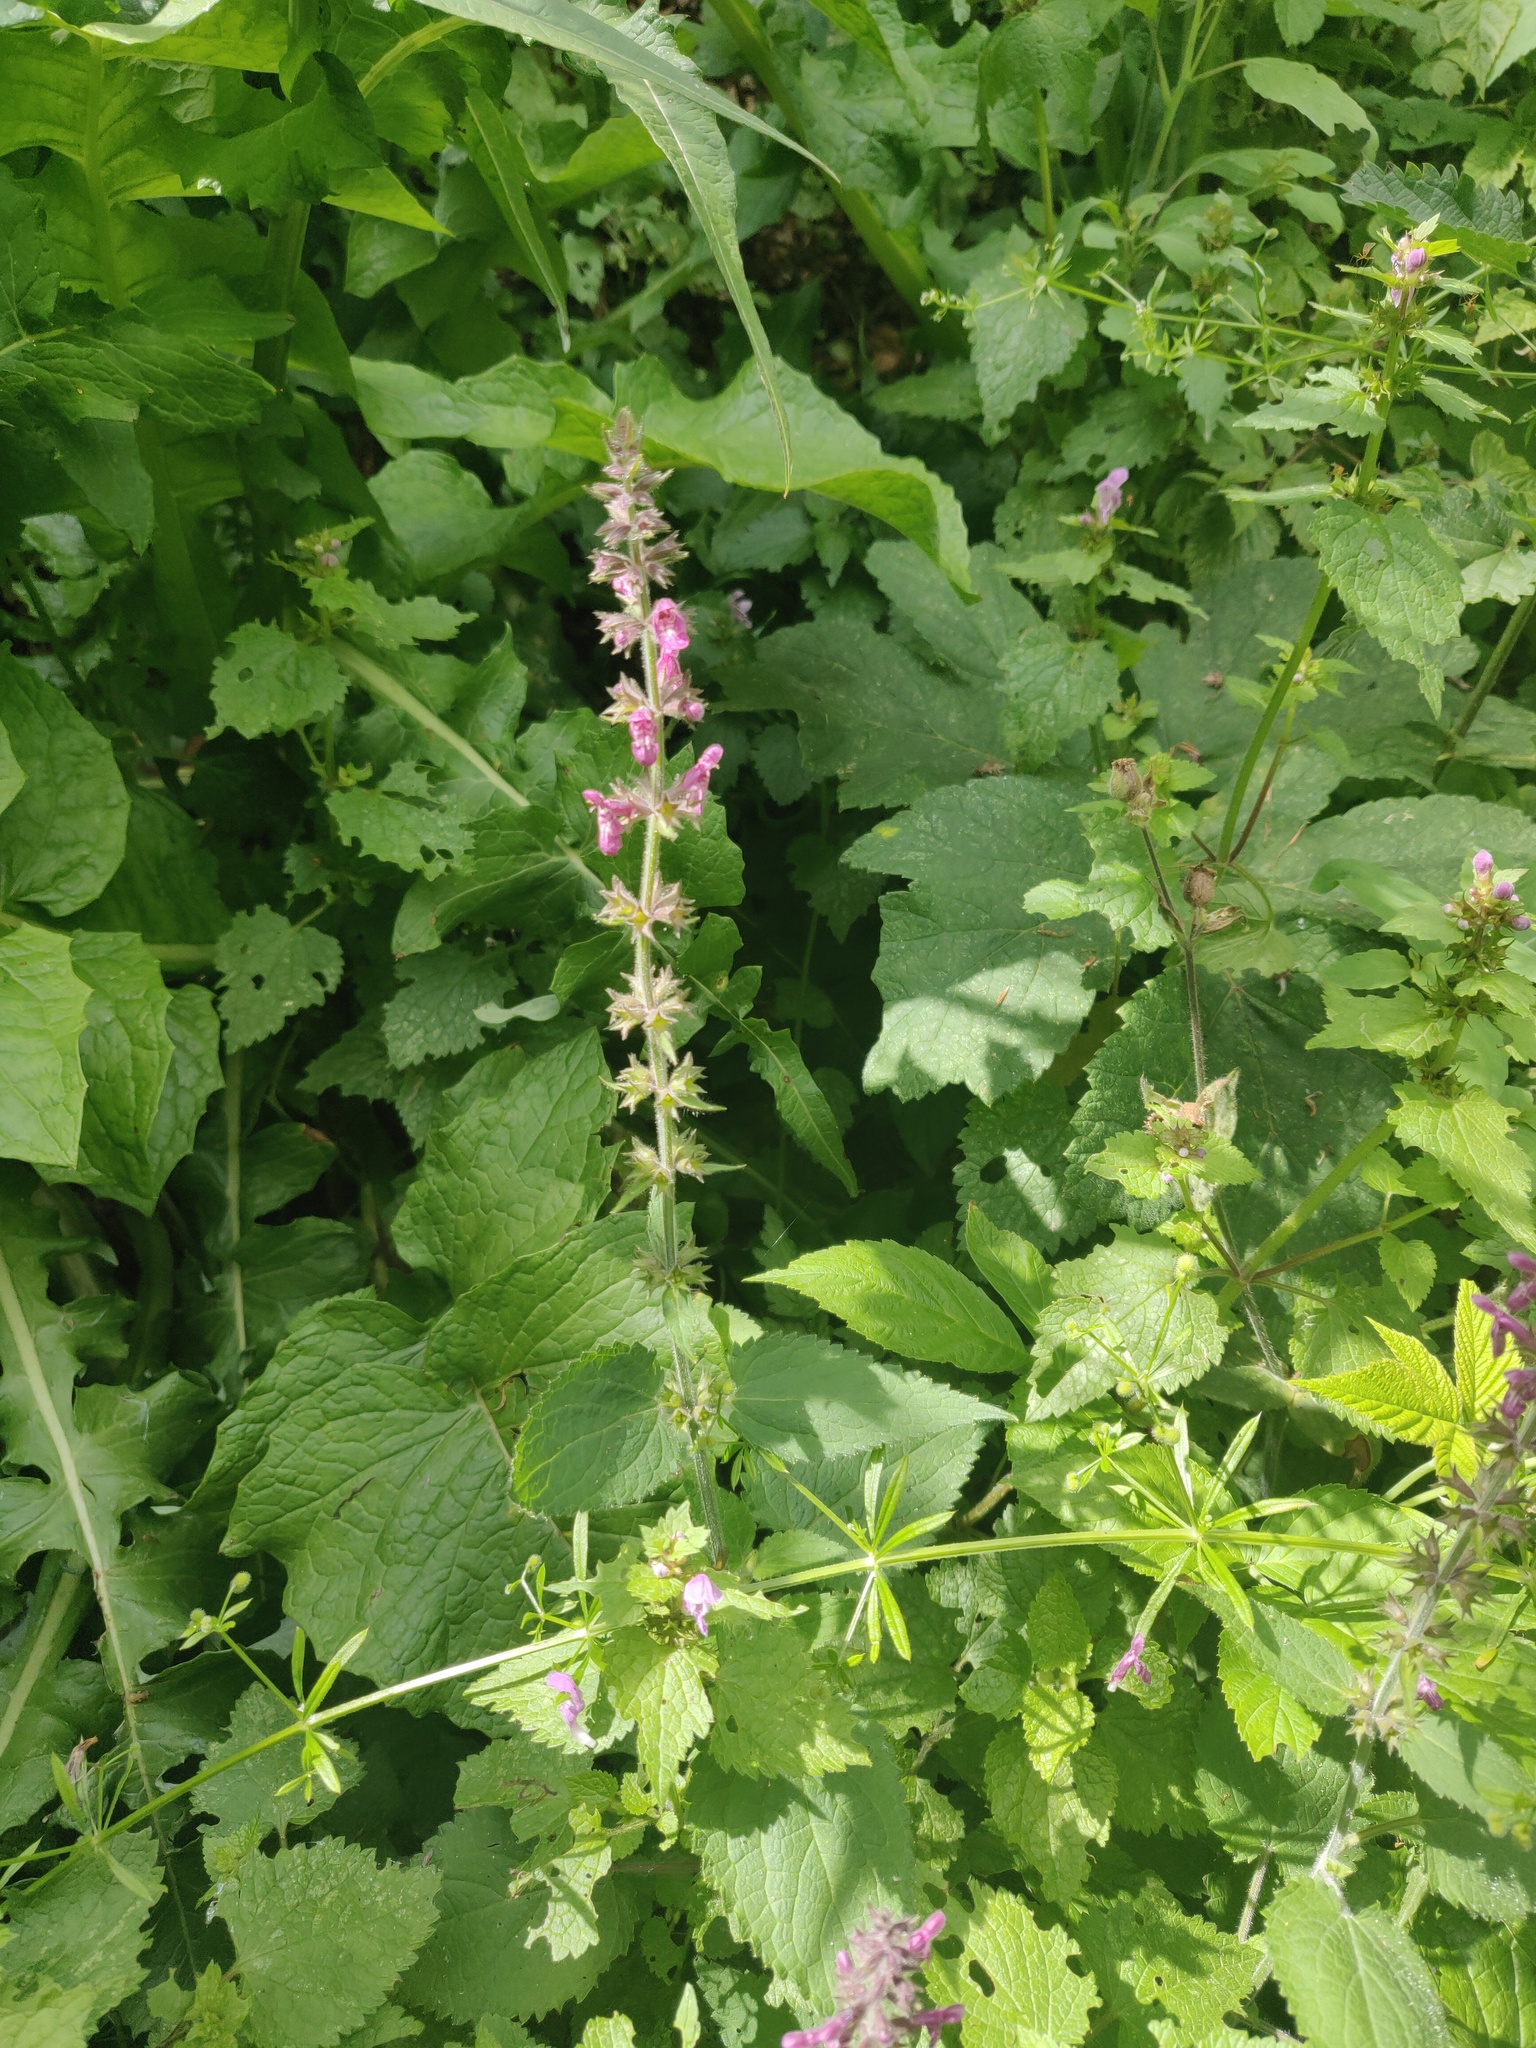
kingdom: Plantae
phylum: Tracheophyta
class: Magnoliopsida
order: Lamiales
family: Lamiaceae
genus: Stachys
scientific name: Stachys sylvatica
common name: Hedge woundwort
